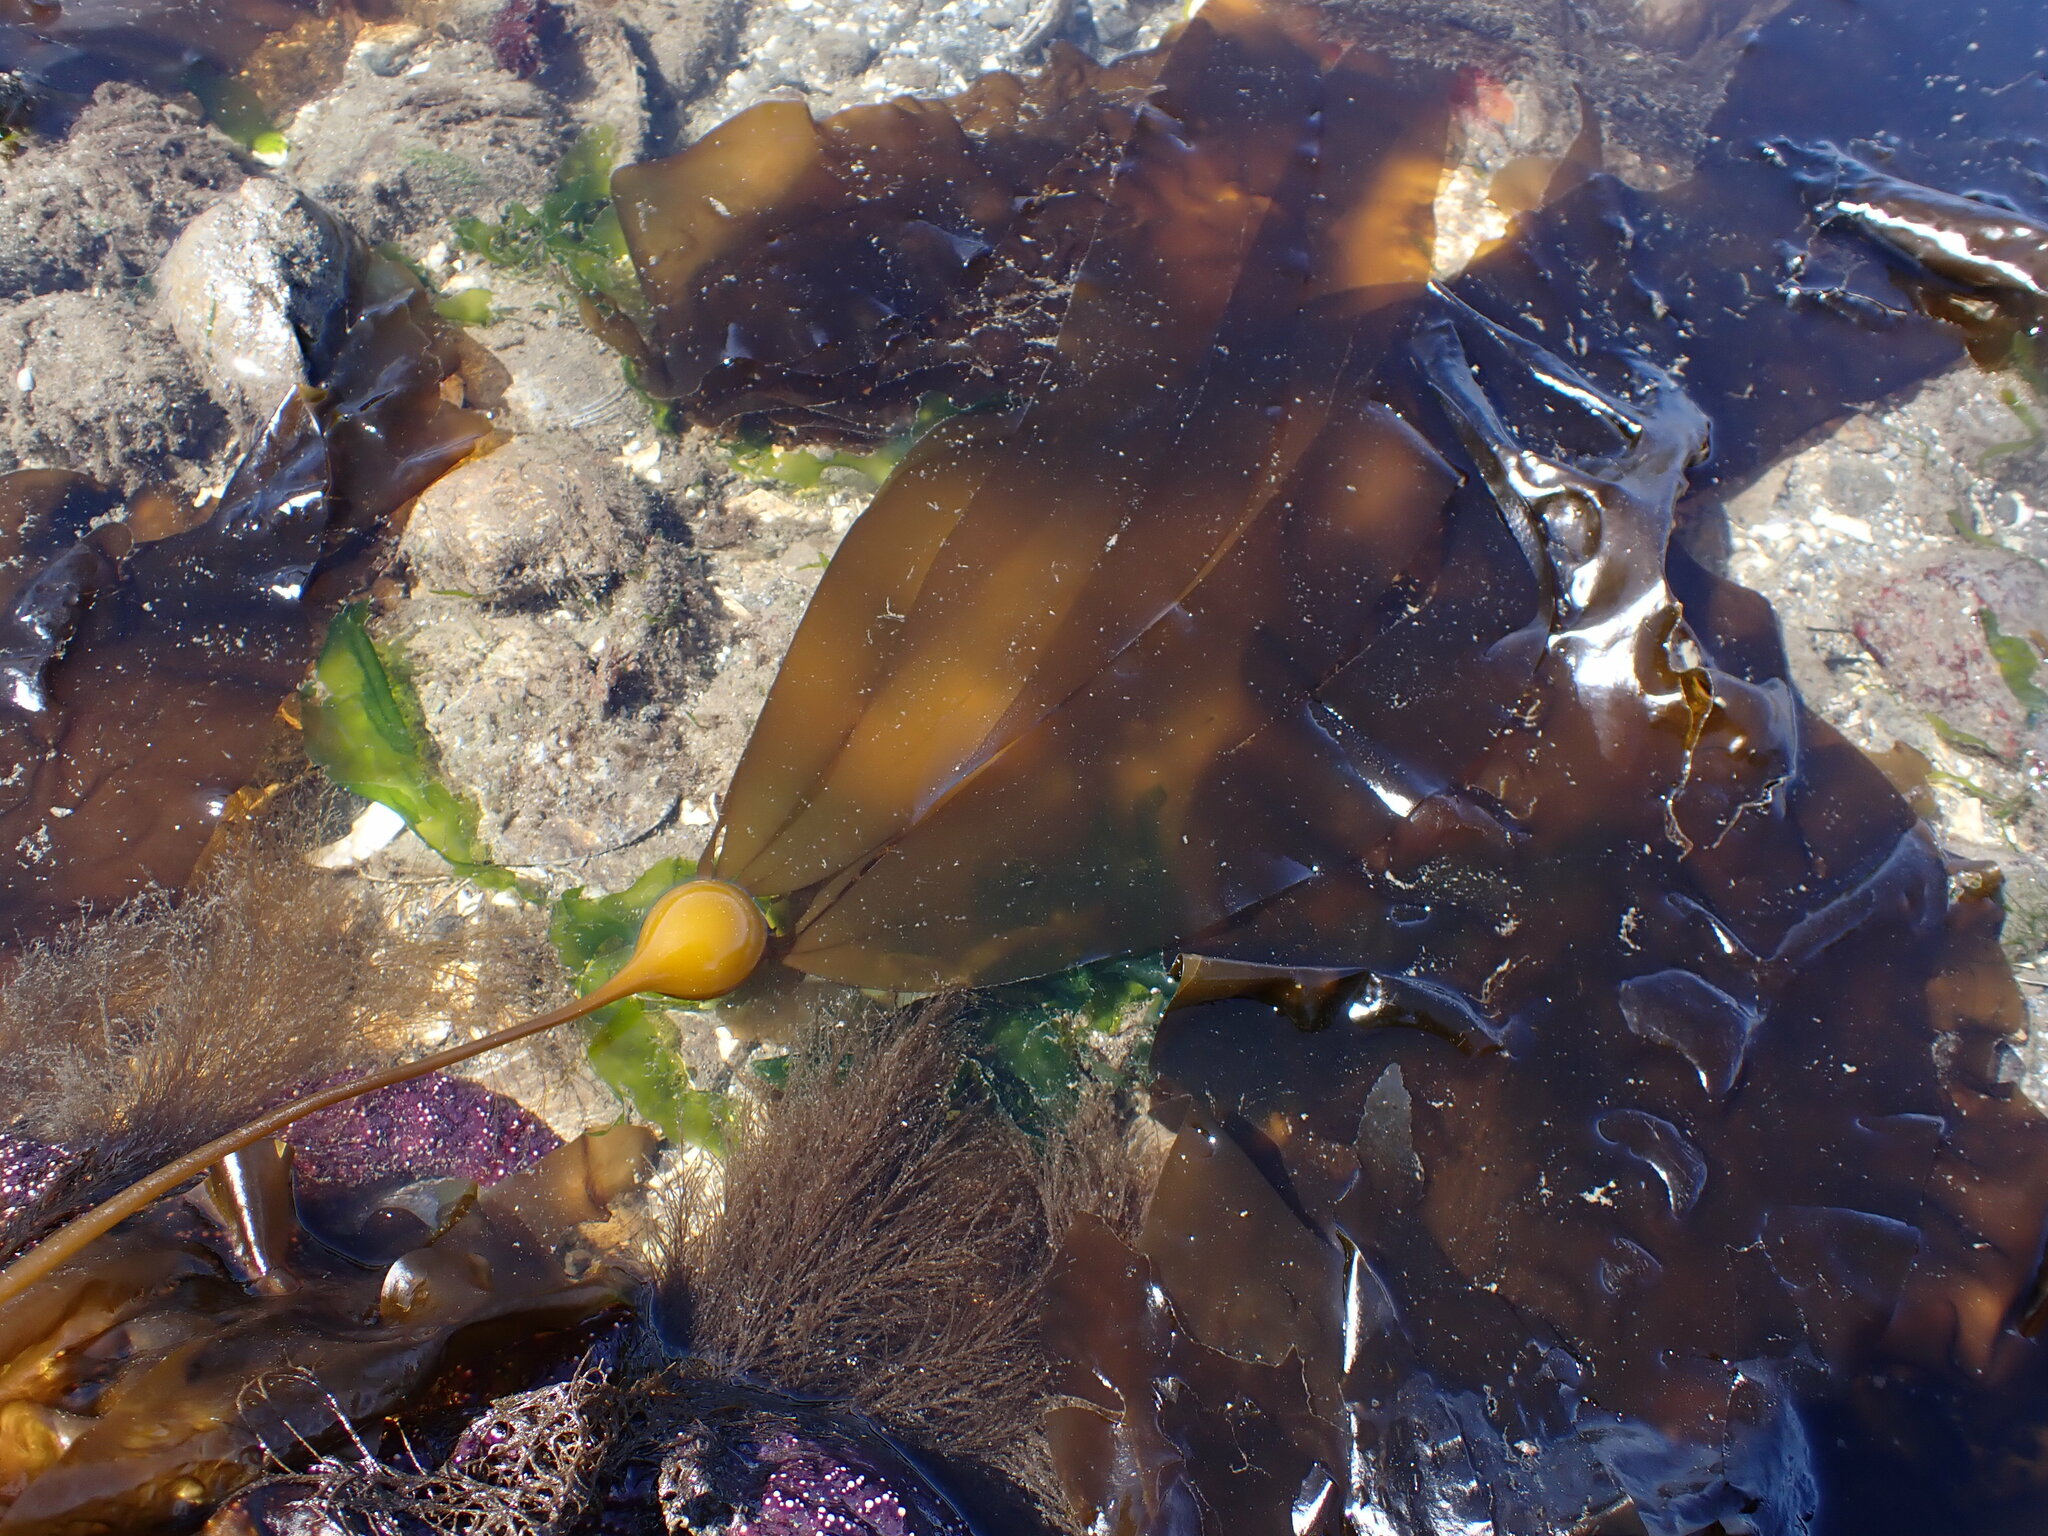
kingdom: Chromista
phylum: Ochrophyta
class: Phaeophyceae
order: Laminariales
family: Laminariaceae
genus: Nereocystis
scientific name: Nereocystis luetkeana
